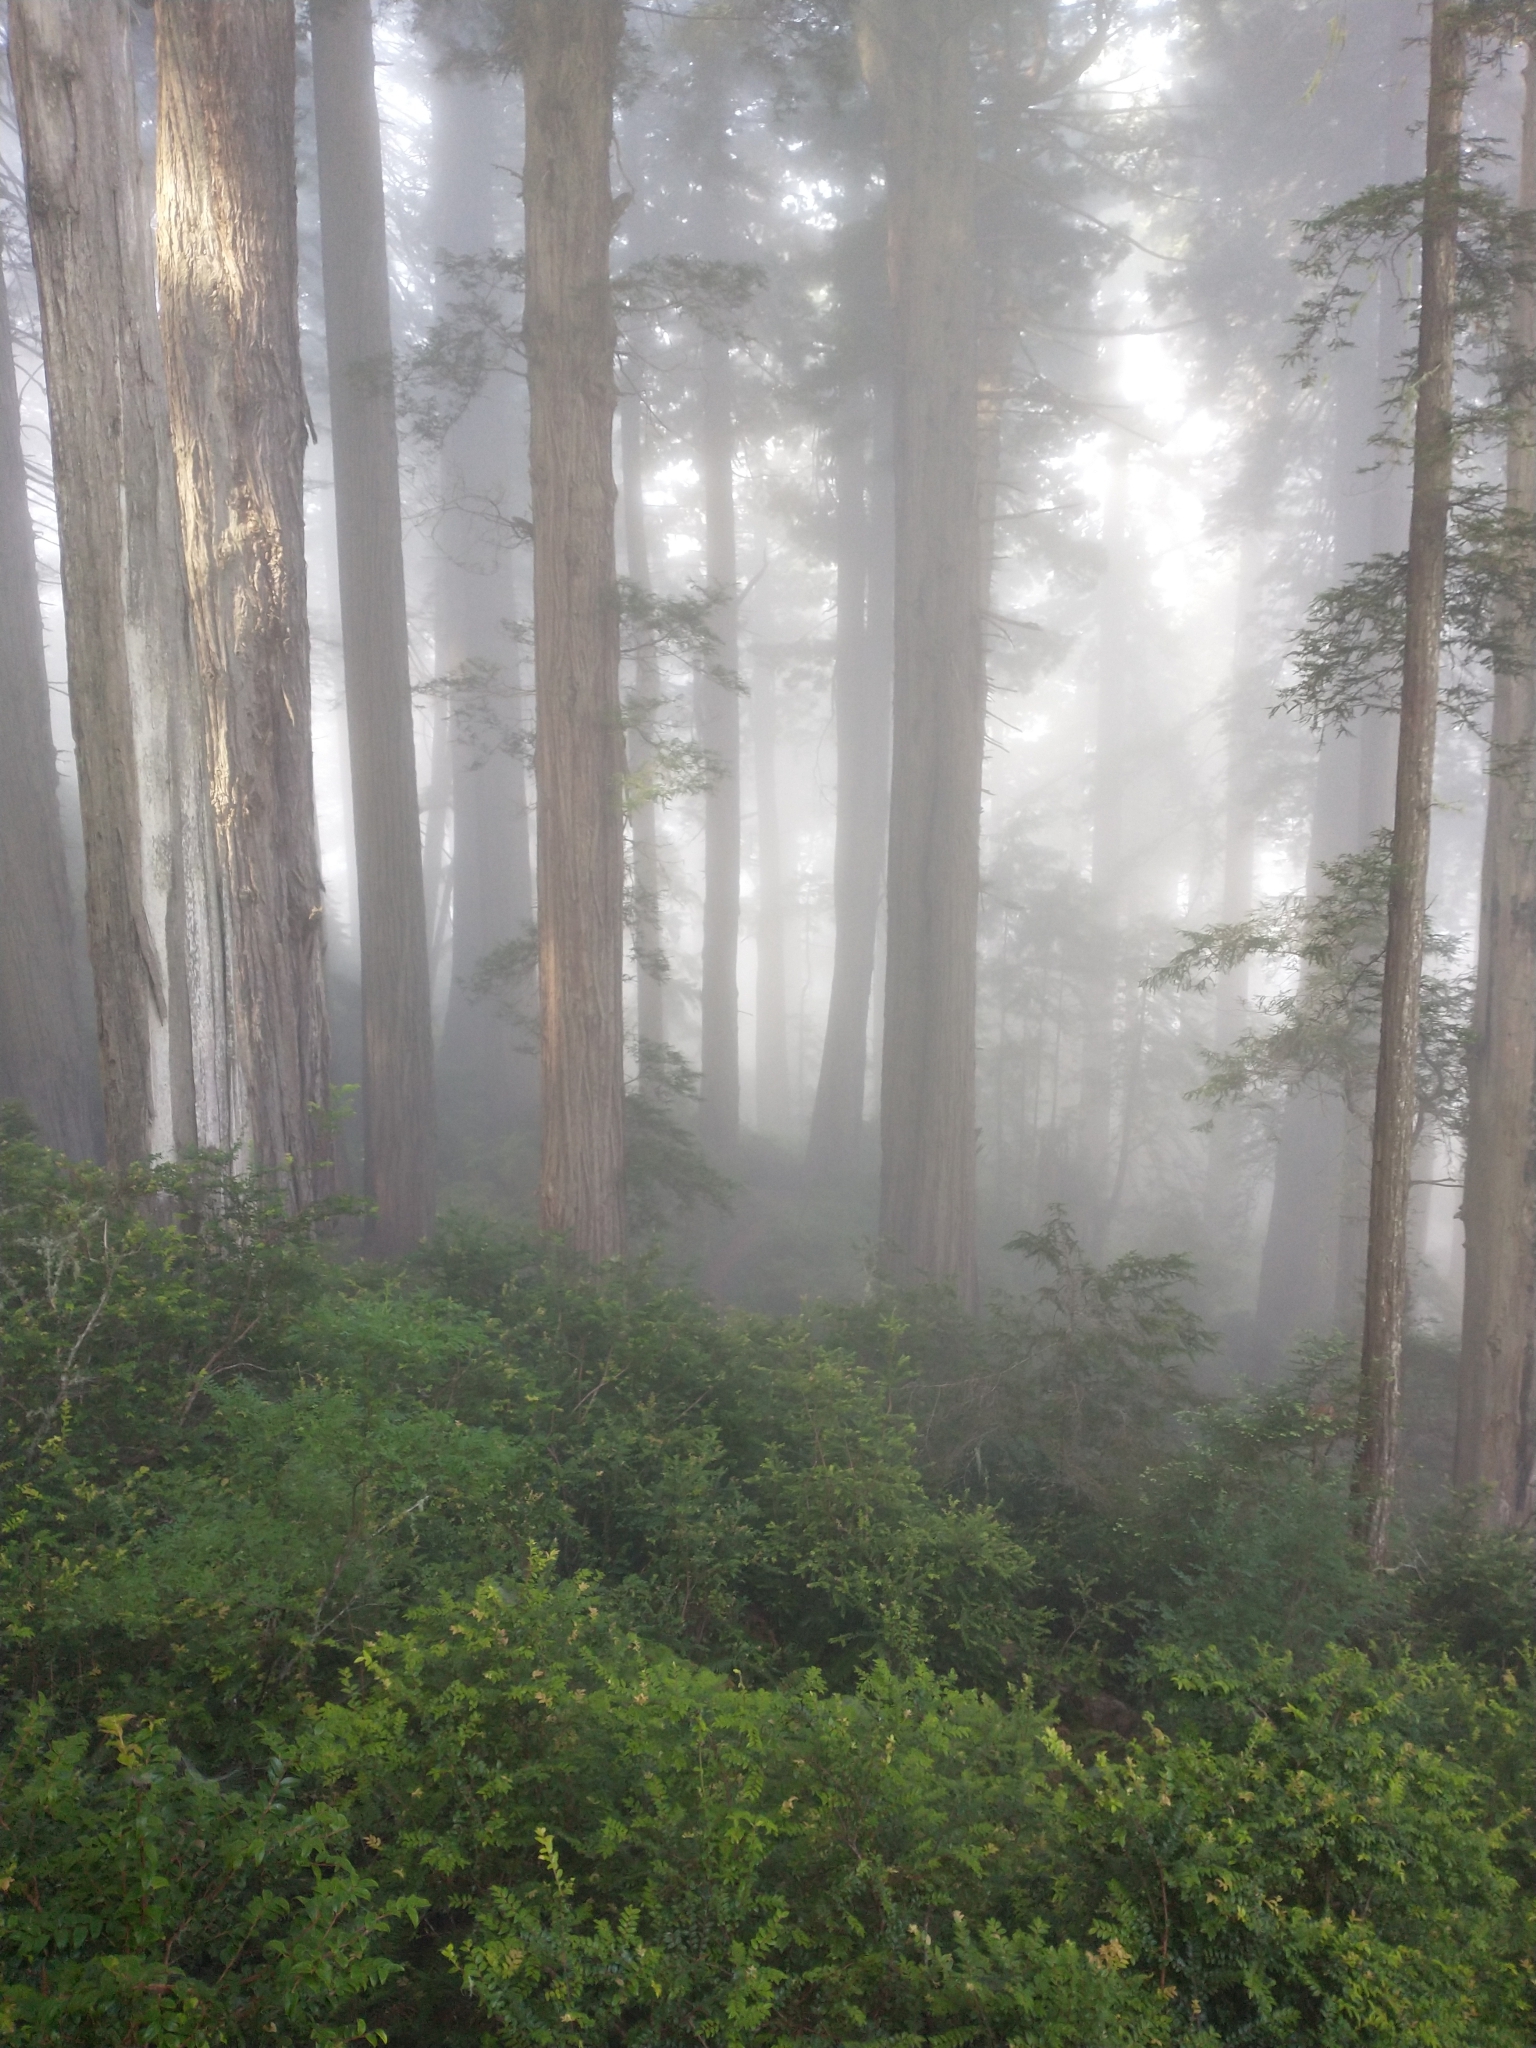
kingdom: Plantae
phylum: Tracheophyta
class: Pinopsida
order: Pinales
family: Cupressaceae
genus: Sequoia
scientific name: Sequoia sempervirens
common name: Coast redwood
